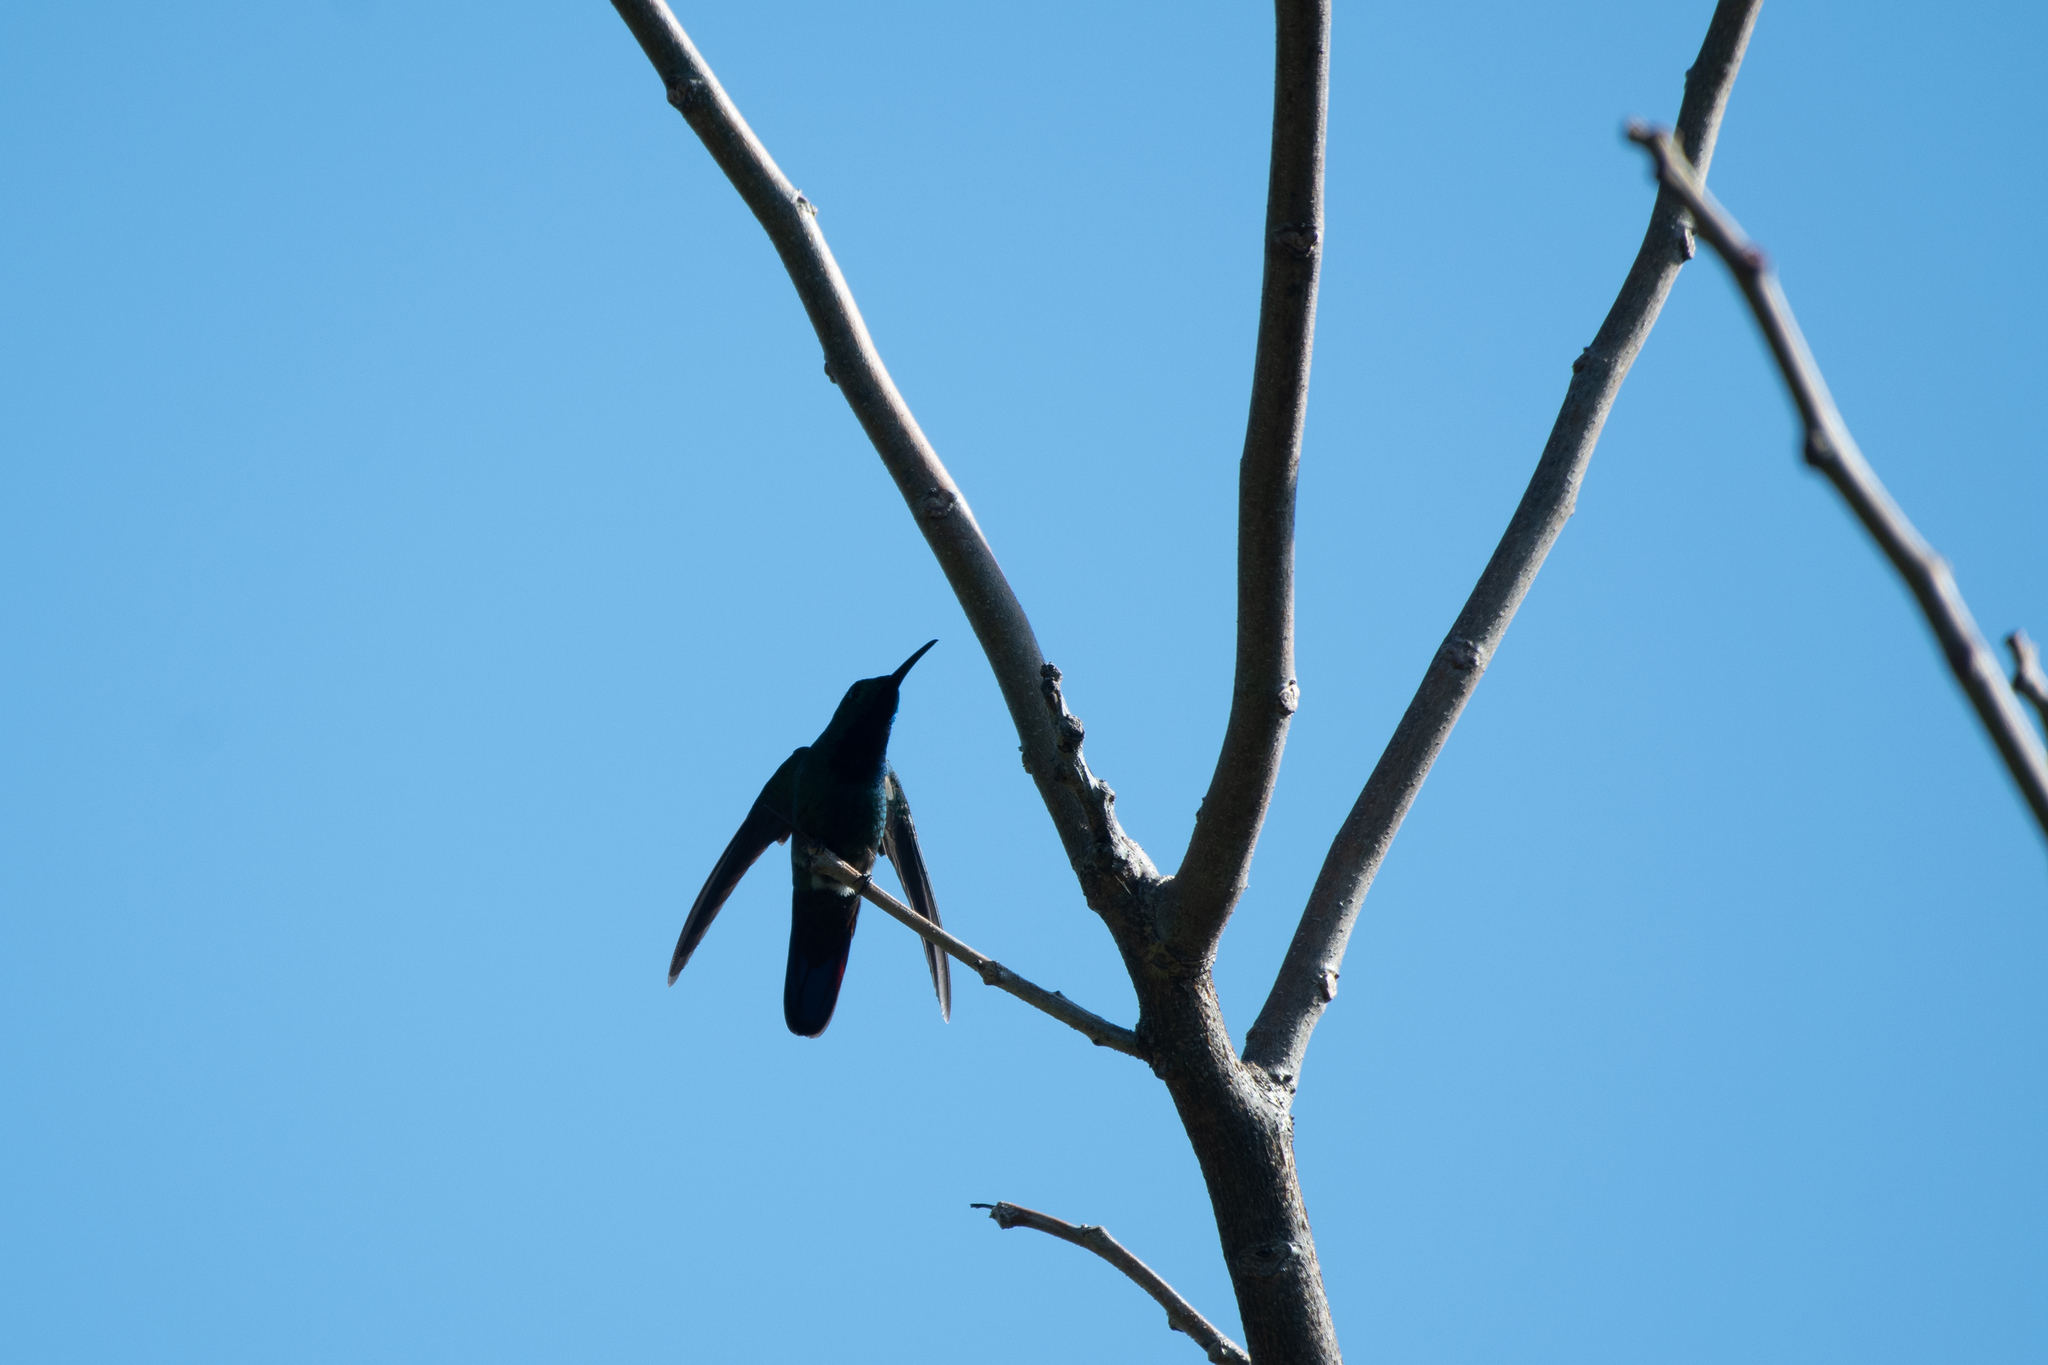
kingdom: Animalia
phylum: Chordata
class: Aves
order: Apodiformes
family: Trochilidae
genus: Anthracothorax
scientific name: Anthracothorax prevostii
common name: Green-breasted mango
